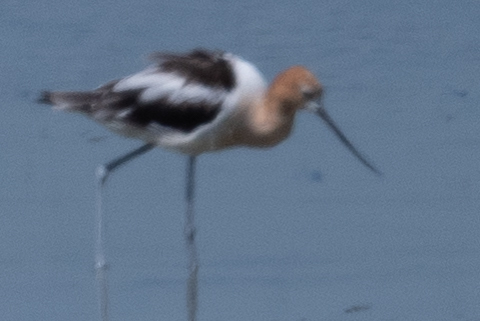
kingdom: Animalia
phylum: Chordata
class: Aves
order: Charadriiformes
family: Recurvirostridae
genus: Recurvirostra
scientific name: Recurvirostra americana
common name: American avocet
